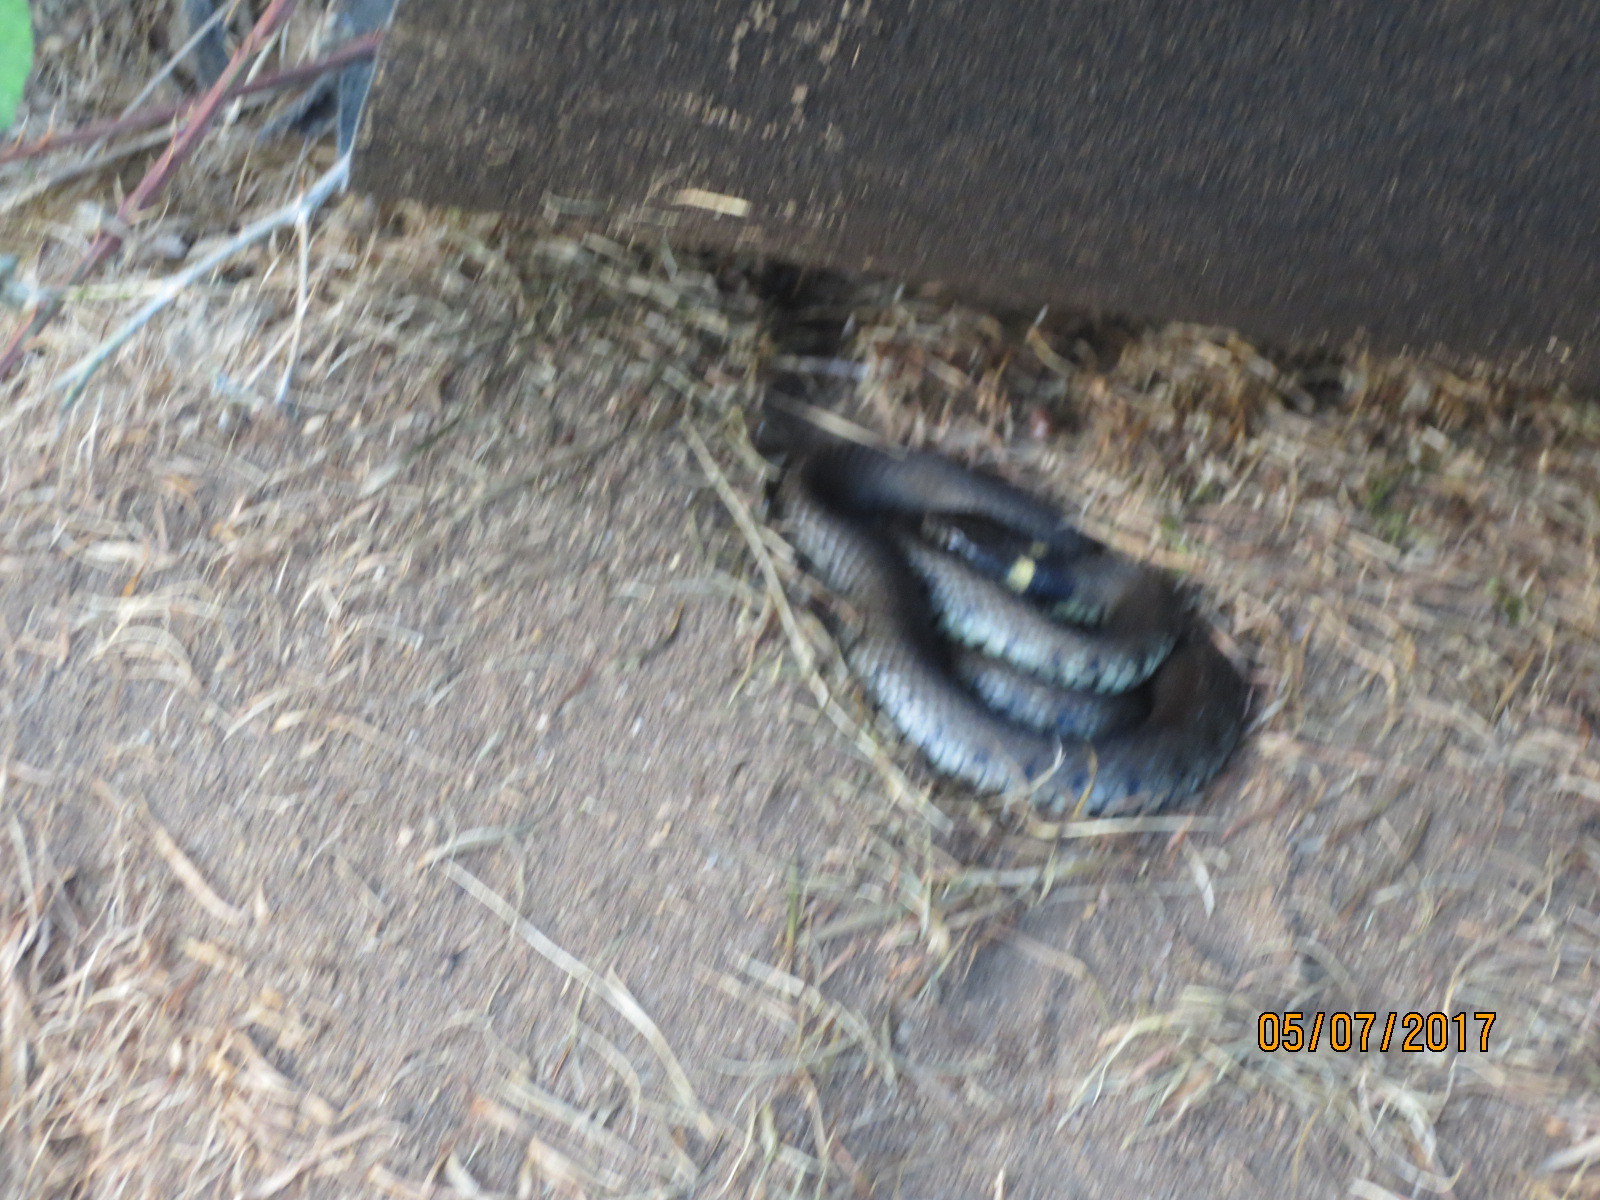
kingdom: Animalia
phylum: Chordata
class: Squamata
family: Colubridae
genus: Natrix
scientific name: Natrix helvetica
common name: Banded grass snake
